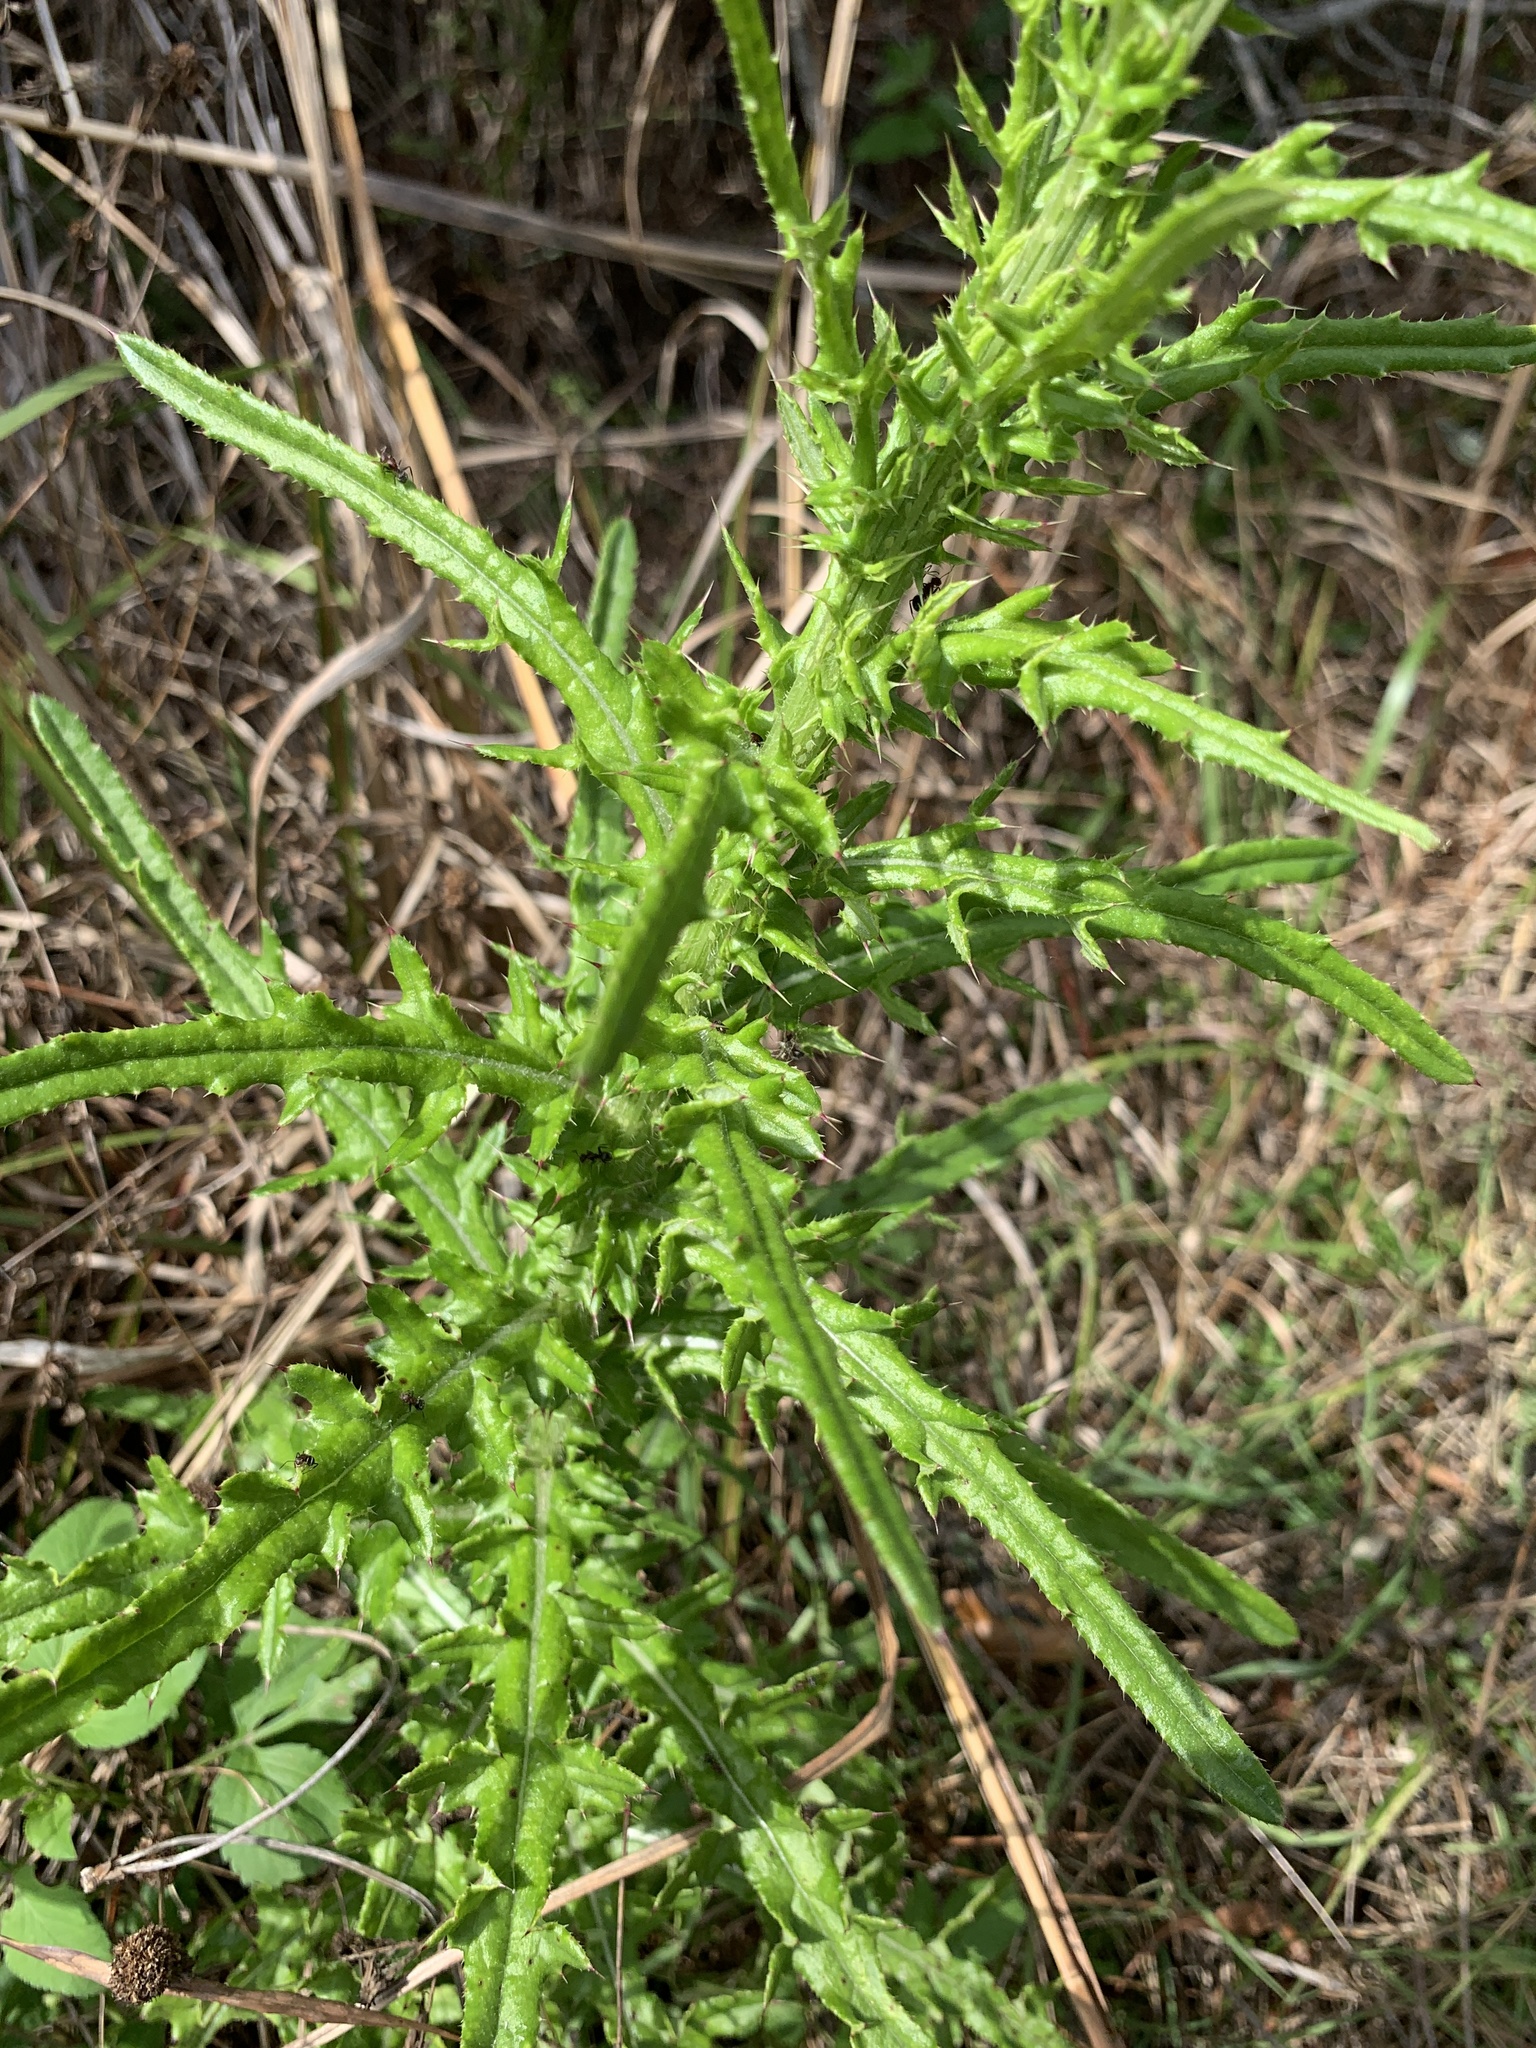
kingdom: Plantae
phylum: Tracheophyta
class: Magnoliopsida
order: Asterales
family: Asteraceae
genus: Cirsium
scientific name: Cirsium nuttalii
